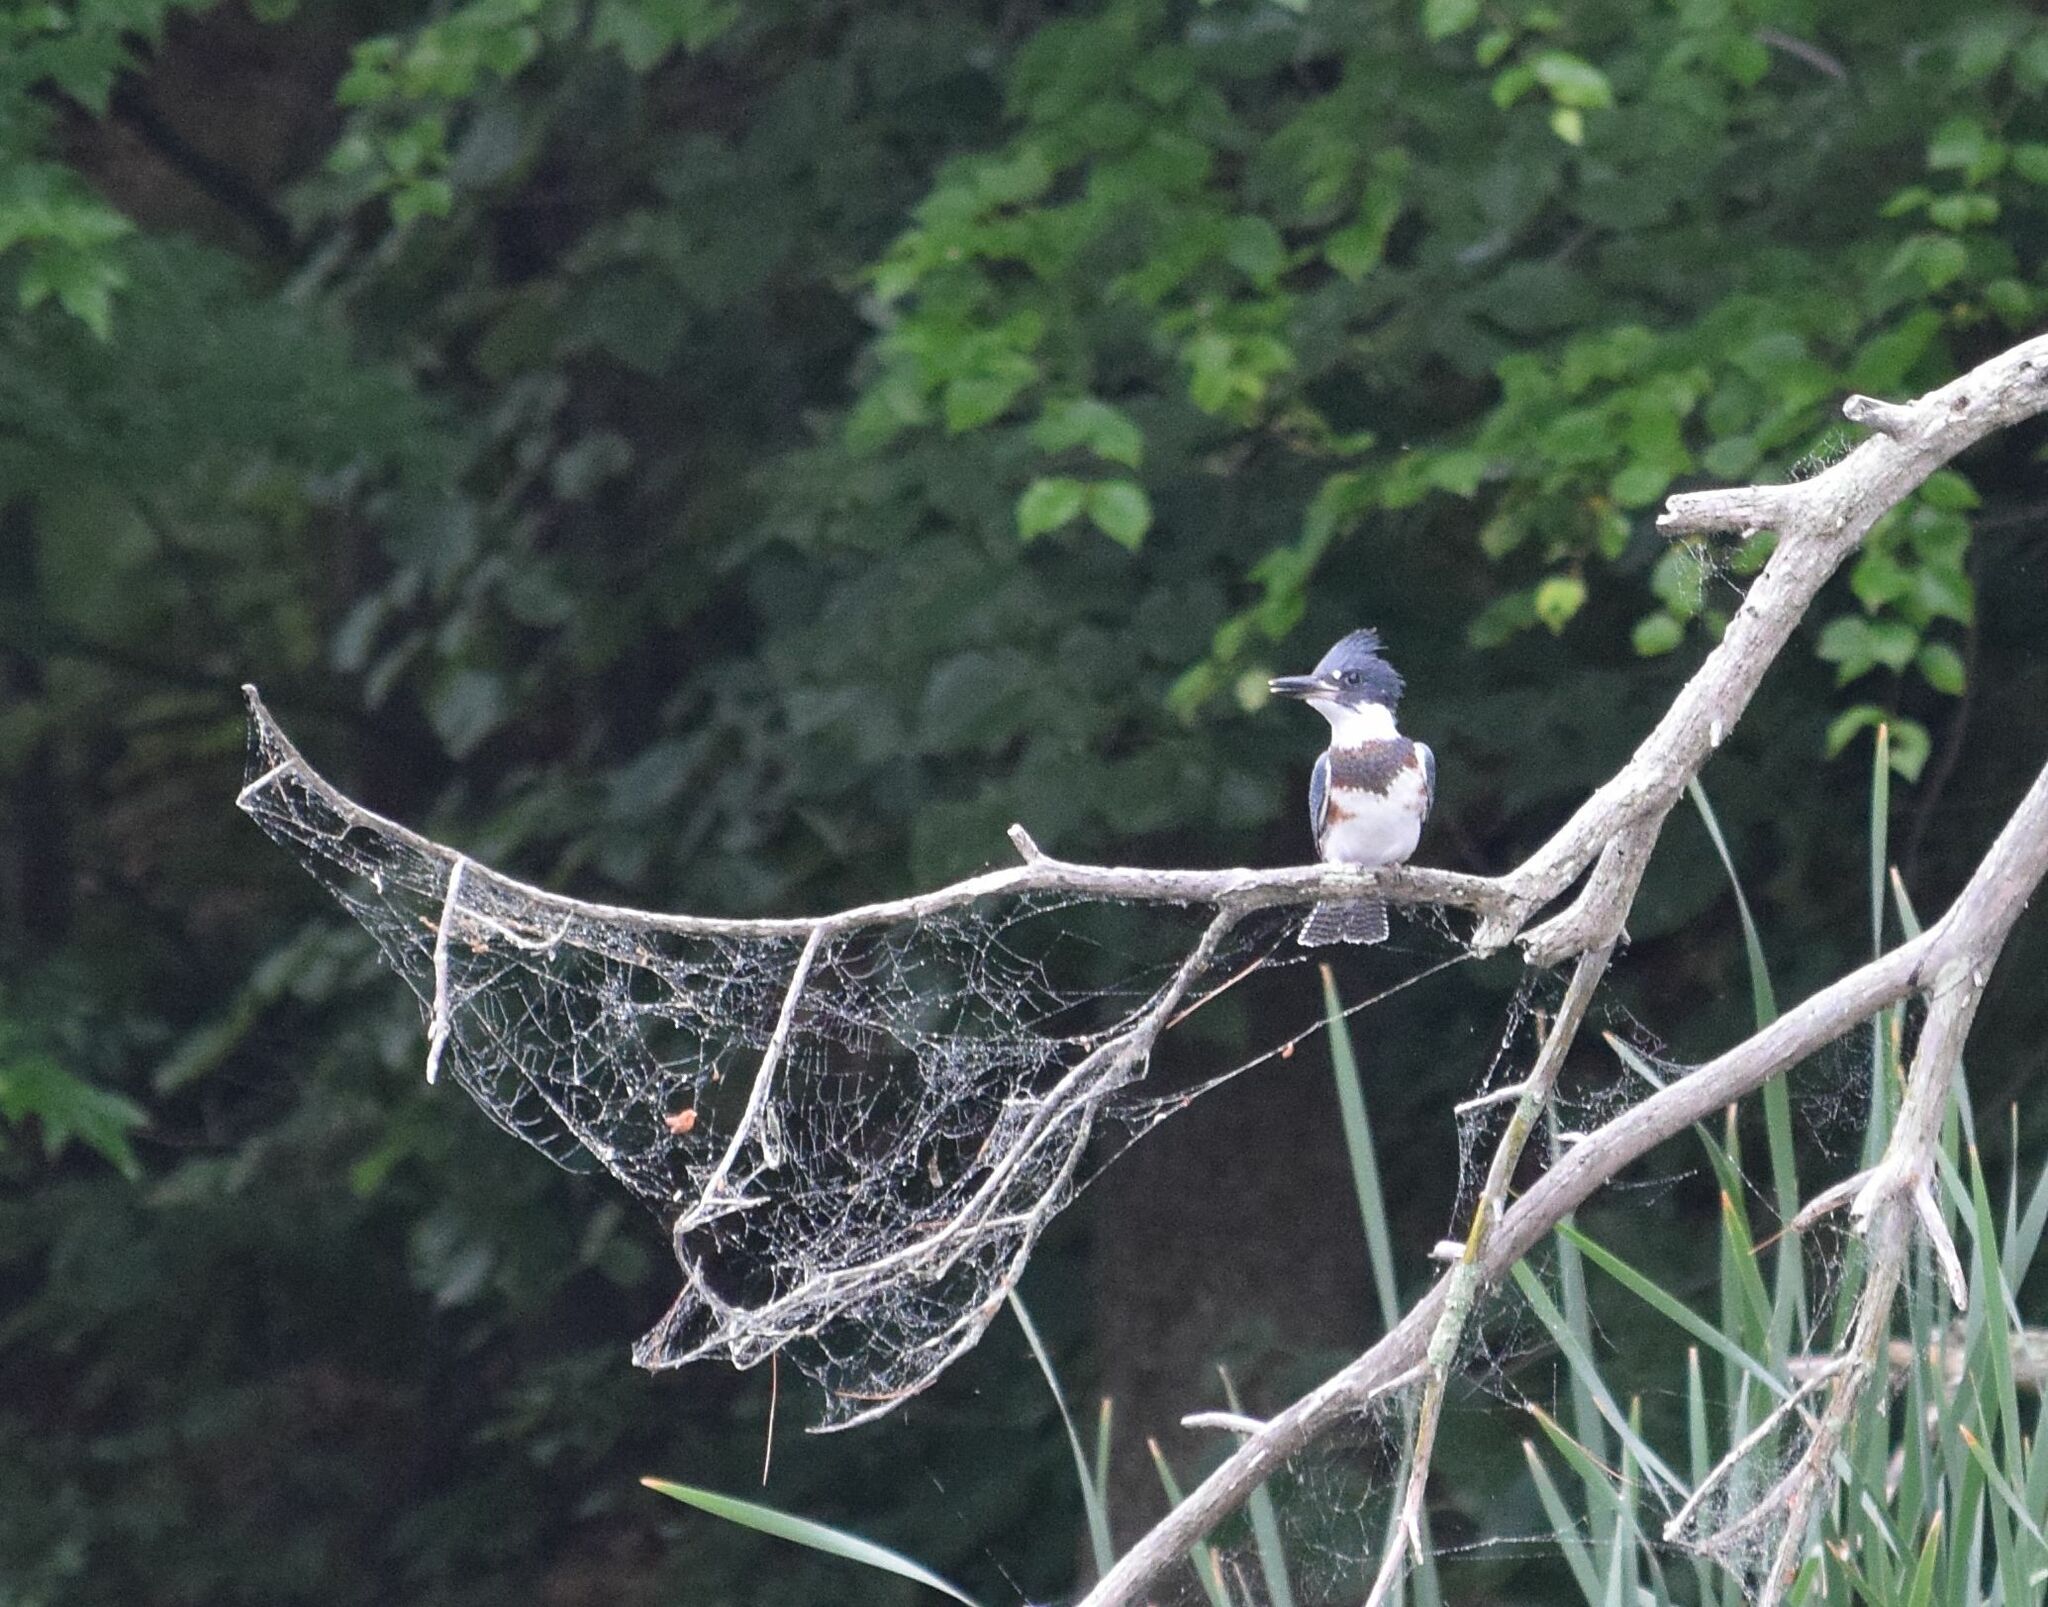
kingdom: Animalia
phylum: Chordata
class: Aves
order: Coraciiformes
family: Alcedinidae
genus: Megaceryle
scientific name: Megaceryle alcyon
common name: Belted kingfisher
